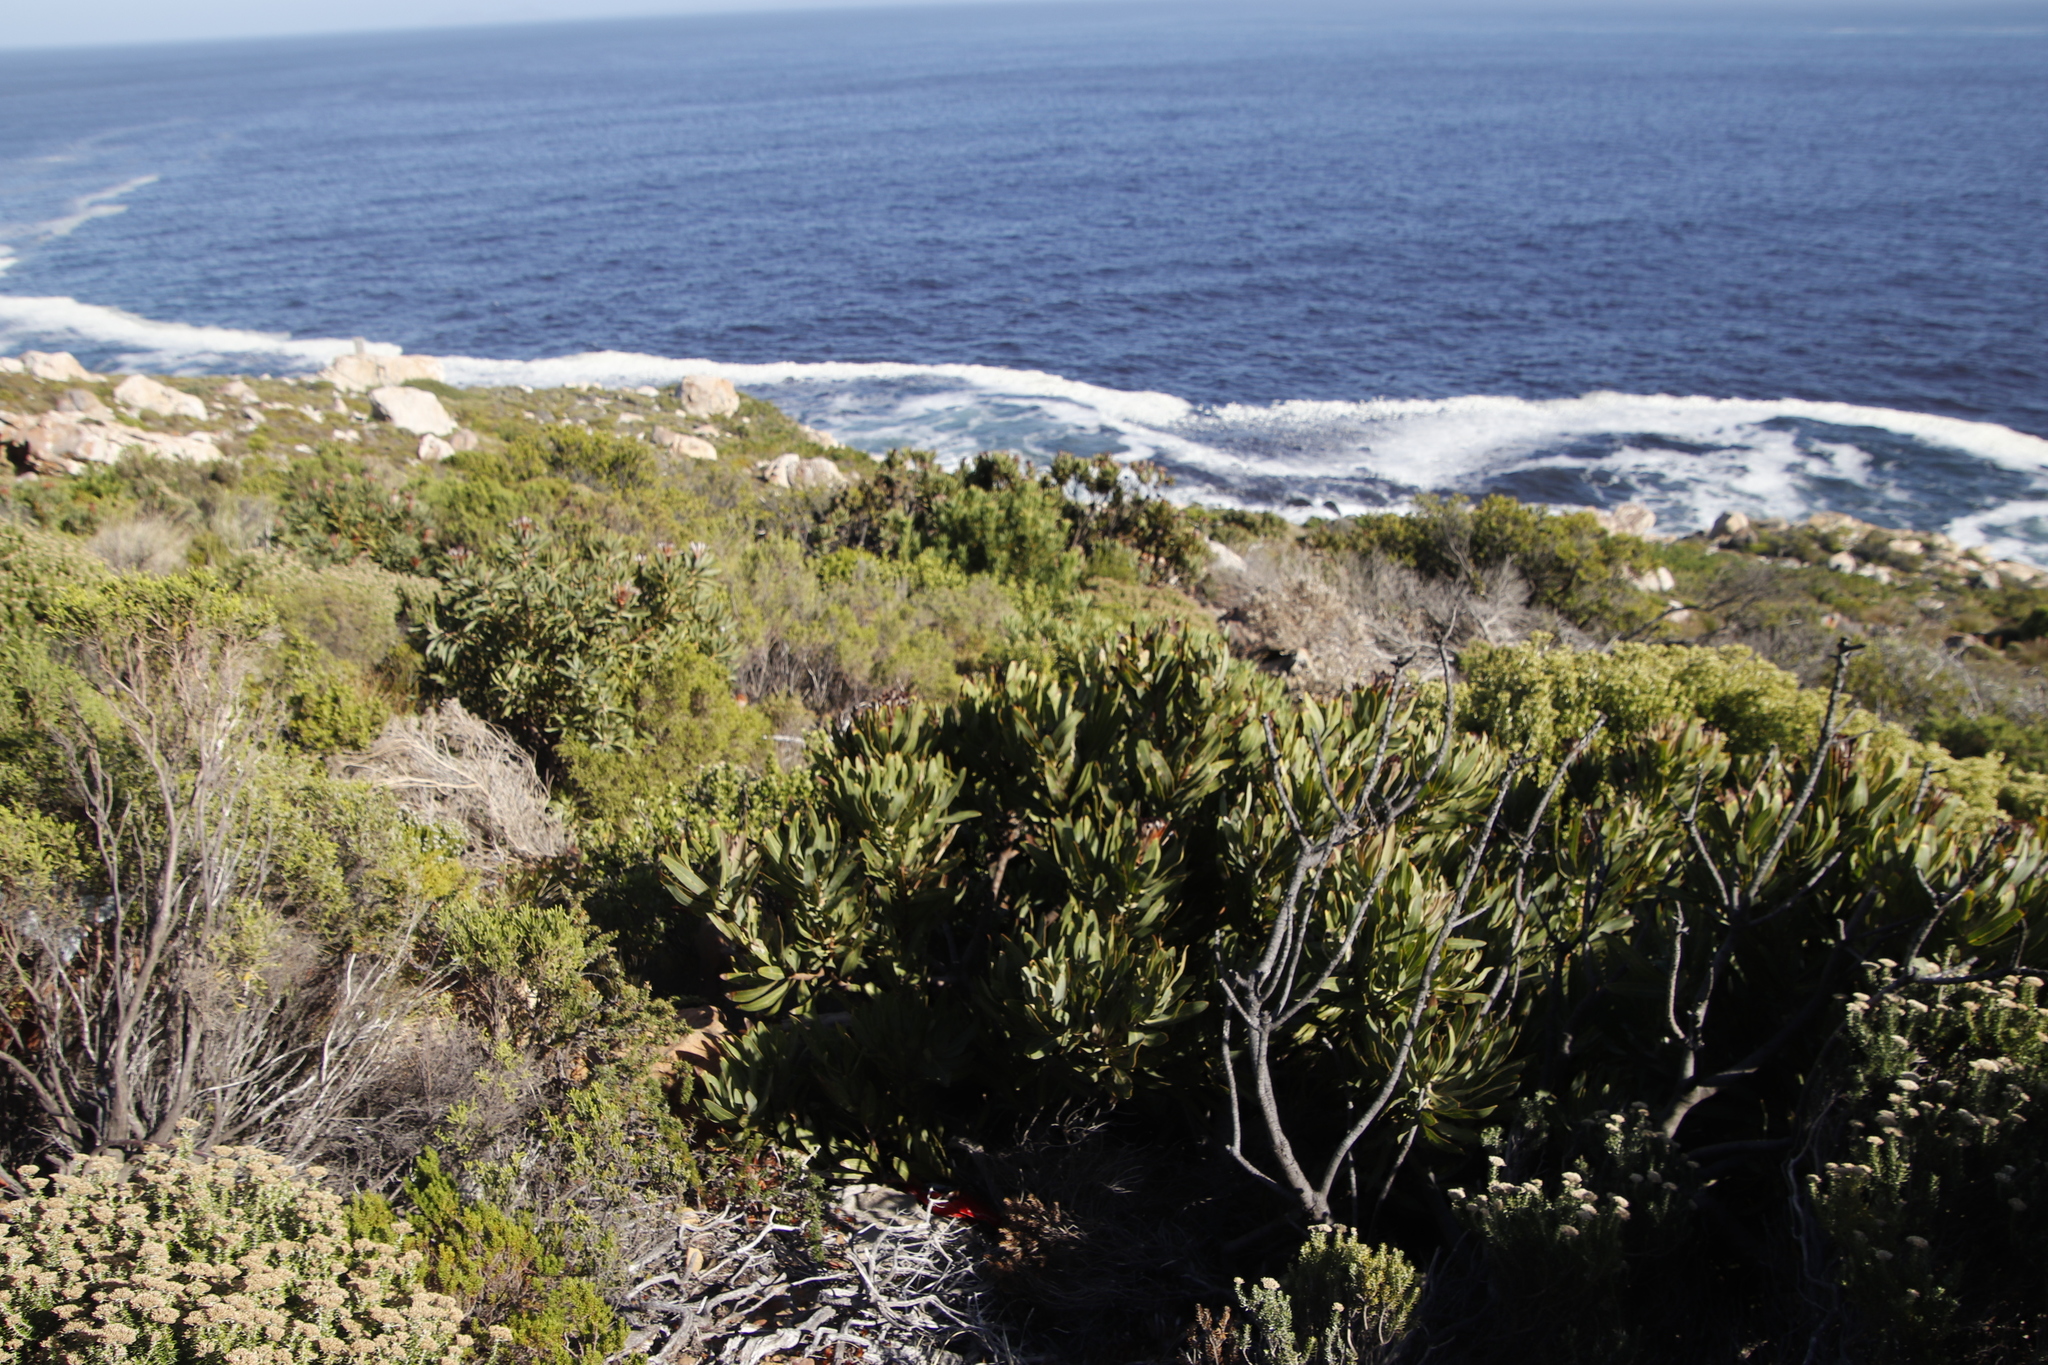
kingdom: Plantae
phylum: Tracheophyta
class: Magnoliopsida
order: Proteales
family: Proteaceae
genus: Protea
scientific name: Protea neriifolia
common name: Blue sugarbush
